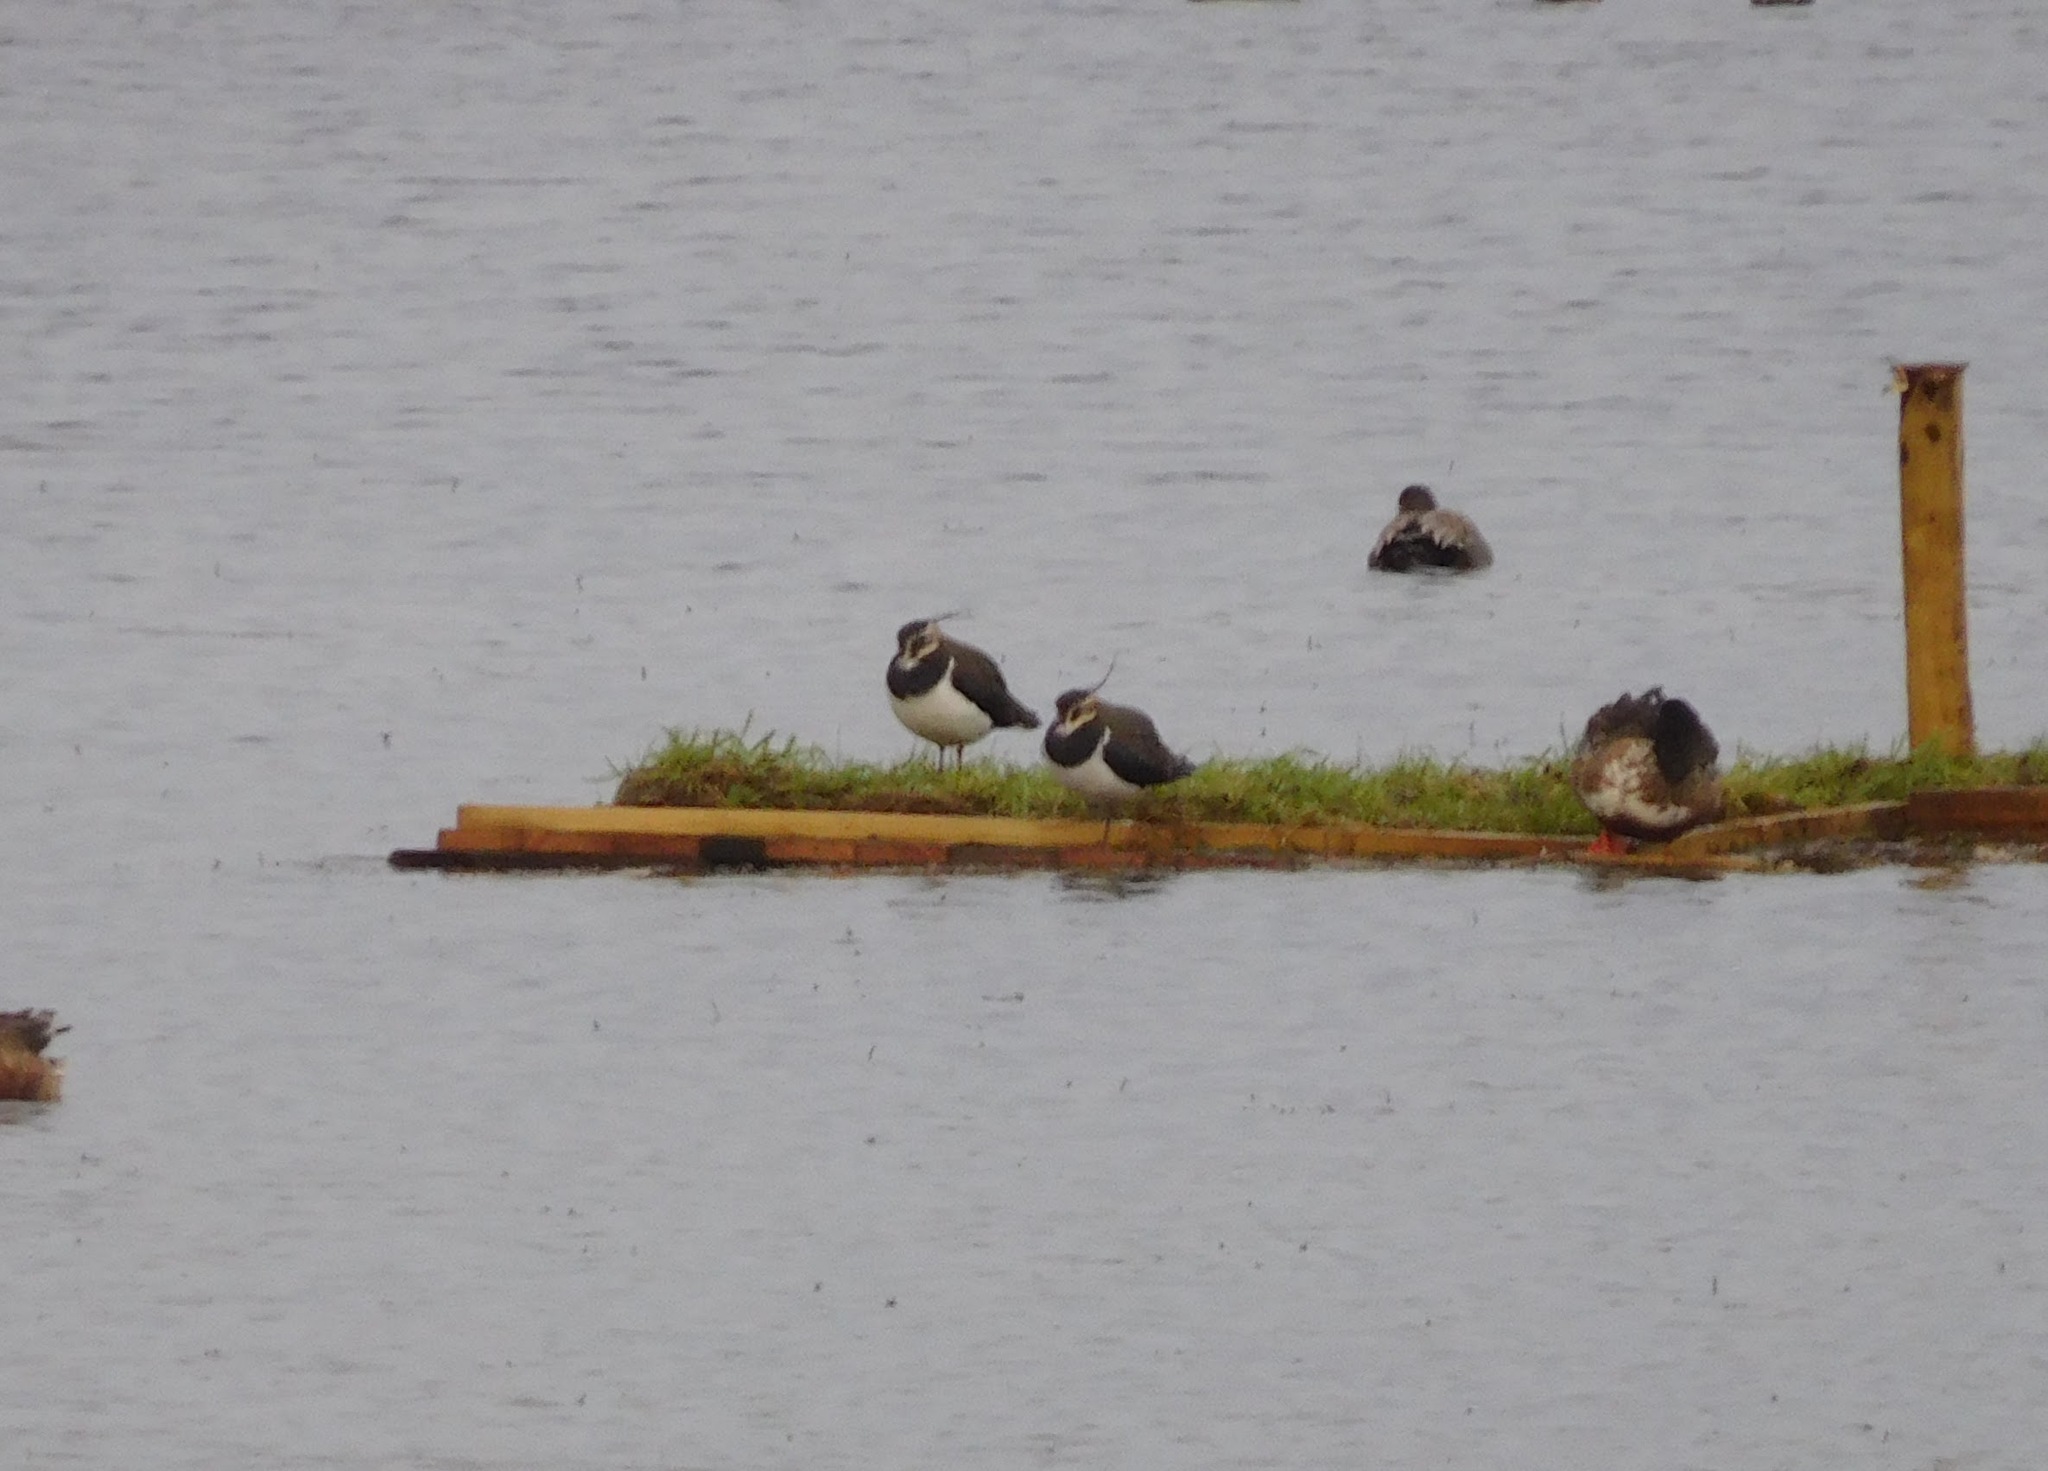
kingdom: Animalia
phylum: Chordata
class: Aves
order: Charadriiformes
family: Charadriidae
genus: Vanellus
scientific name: Vanellus vanellus
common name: Northern lapwing
